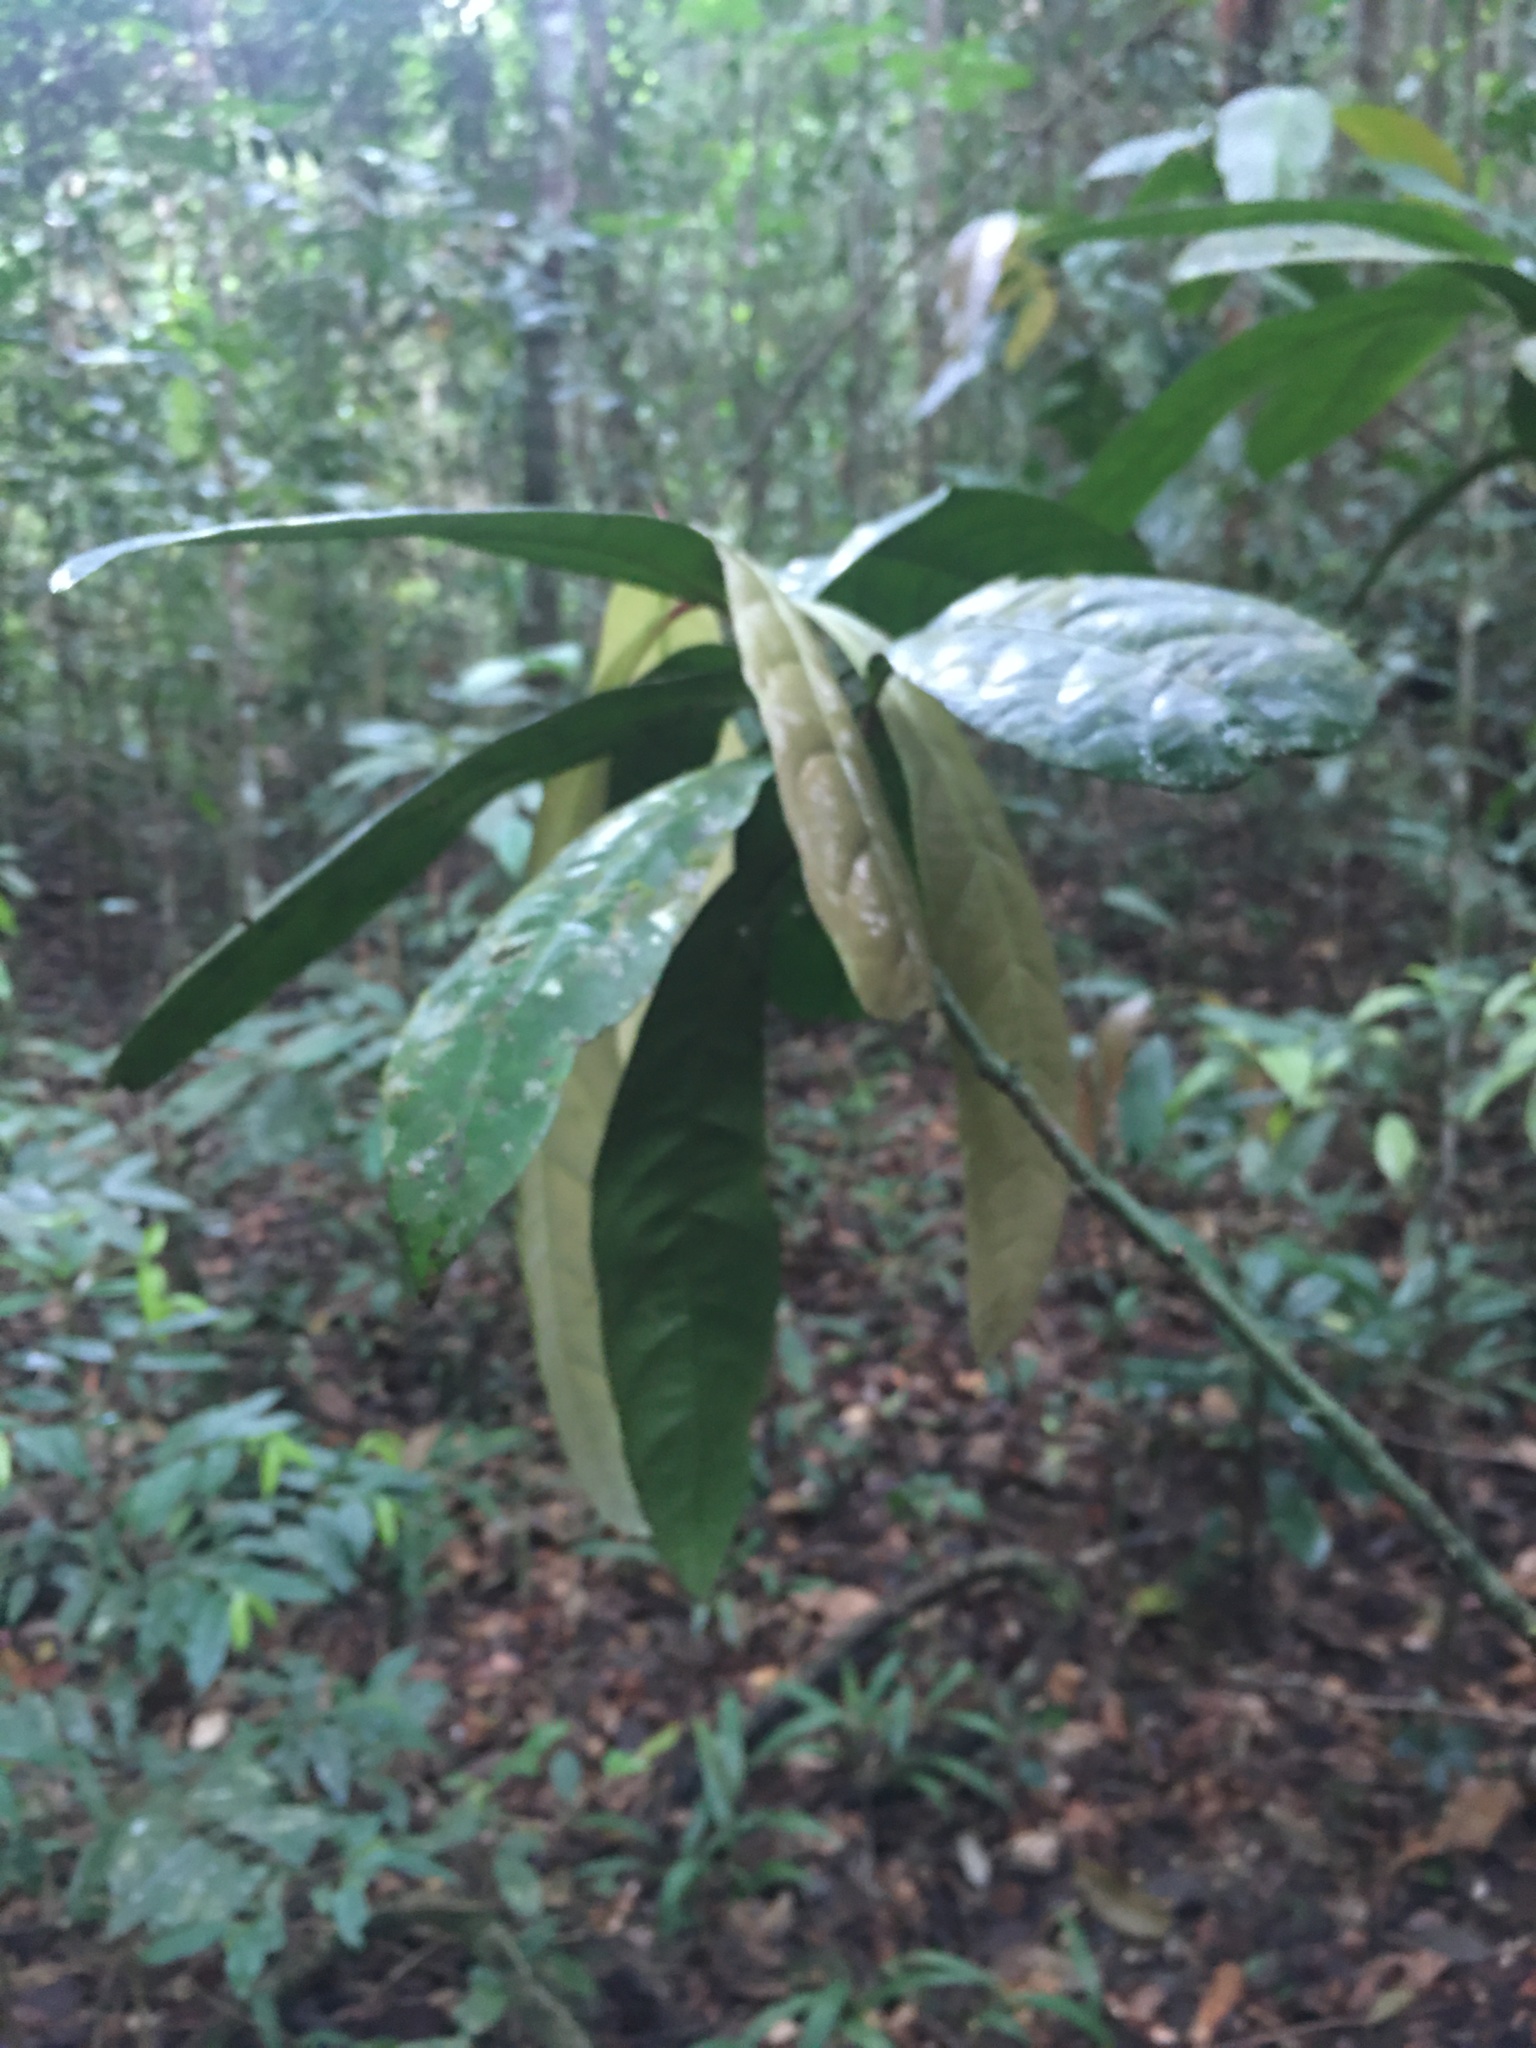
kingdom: Plantae
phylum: Tracheophyta
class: Magnoliopsida
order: Malpighiales
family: Violaceae
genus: Paypayrola
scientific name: Paypayrola blanchetiana
